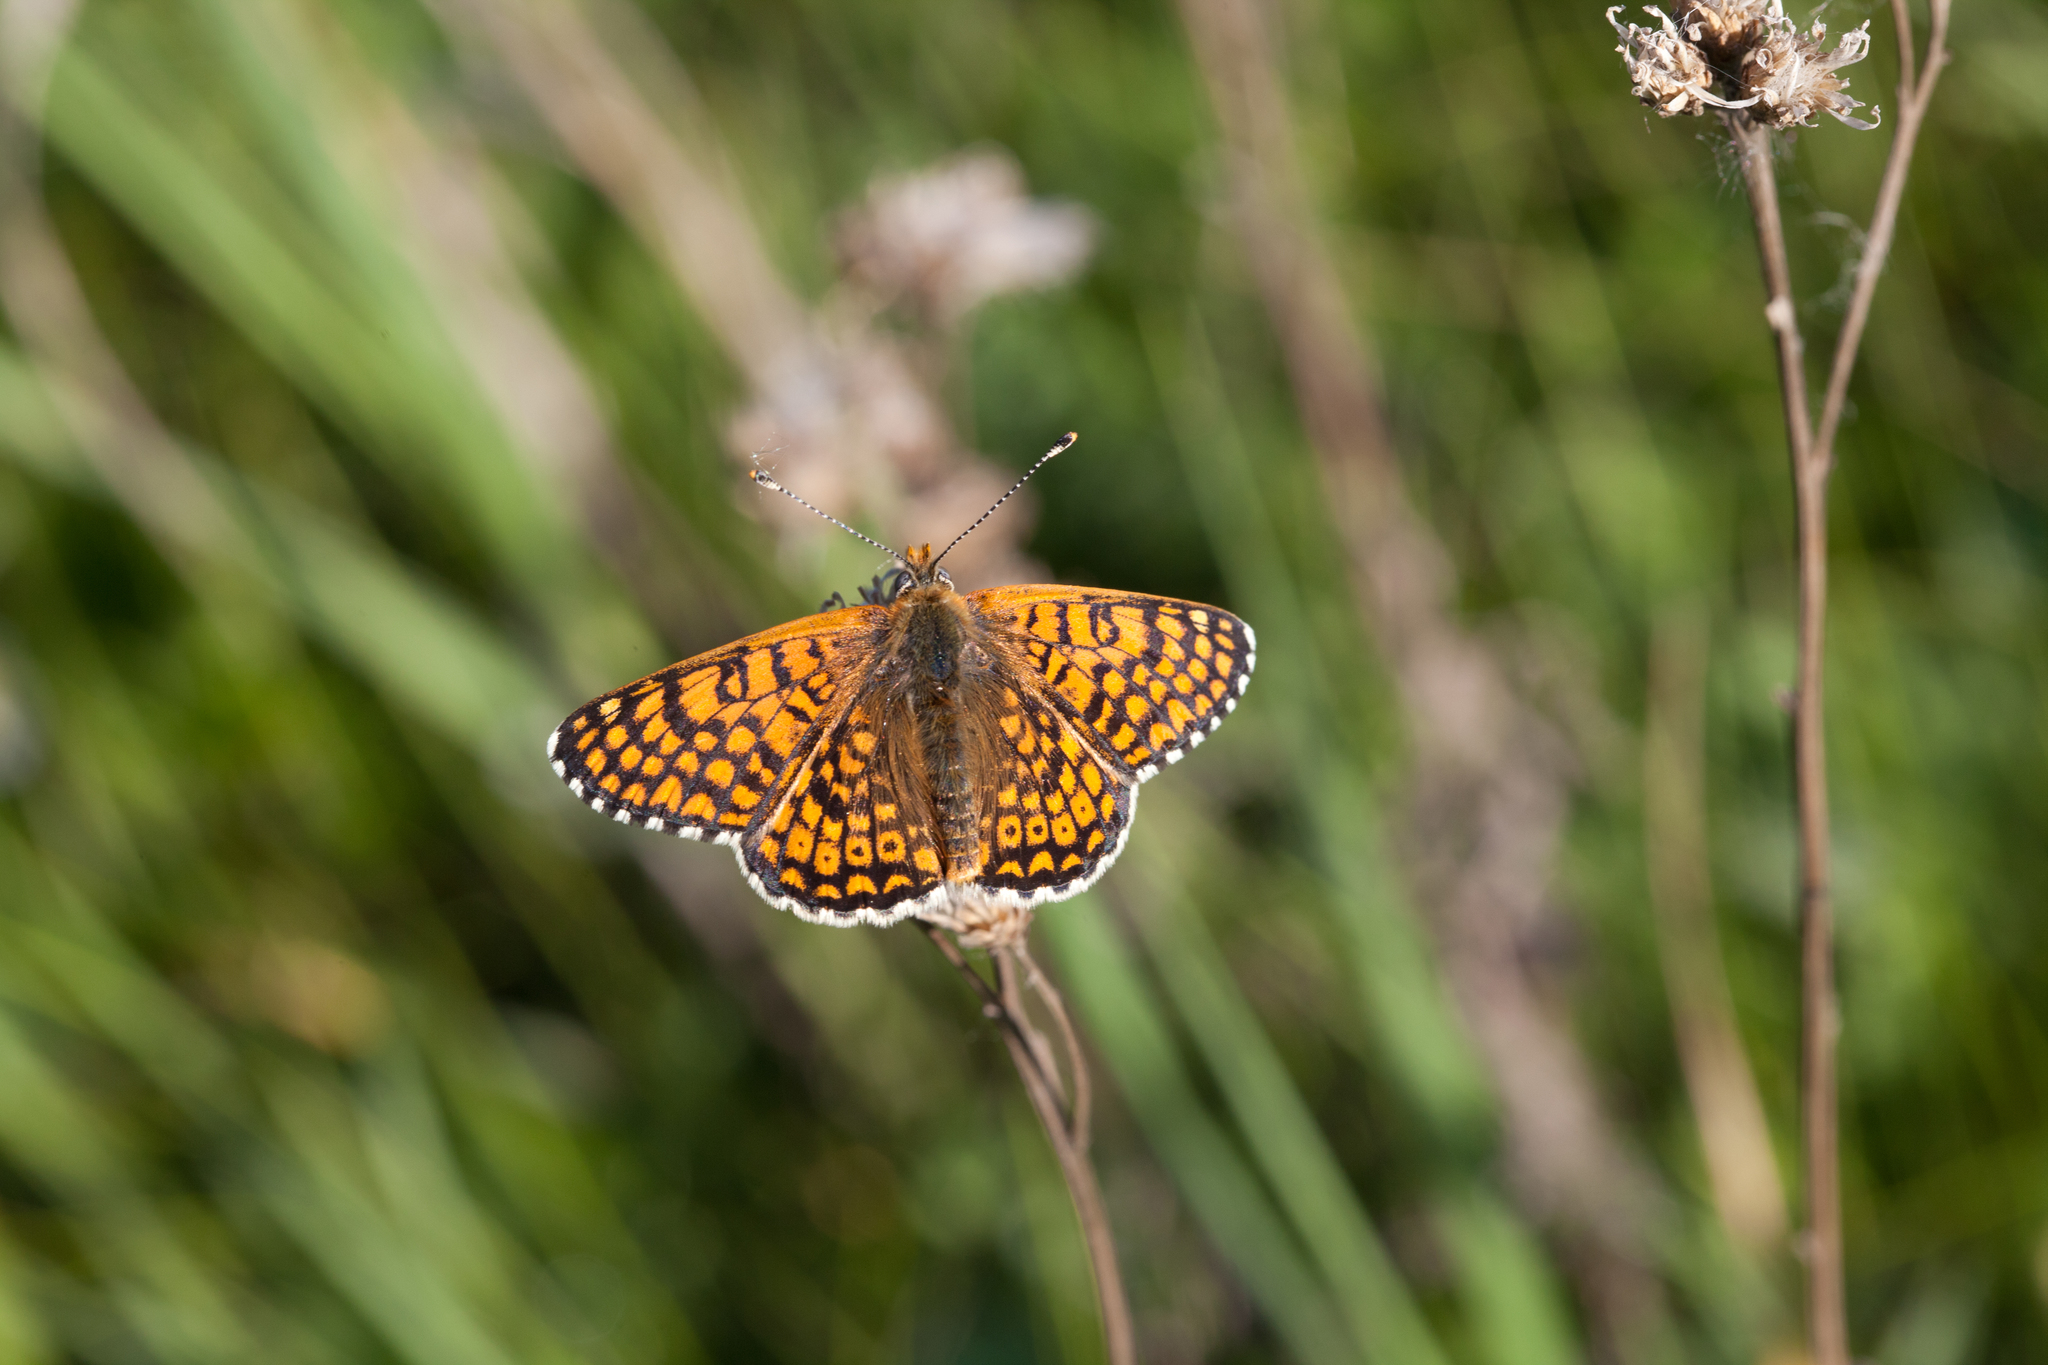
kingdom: Animalia
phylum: Arthropoda
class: Insecta
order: Lepidoptera
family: Nymphalidae
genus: Melitaea
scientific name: Melitaea cinxia
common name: Glanville fritillary
